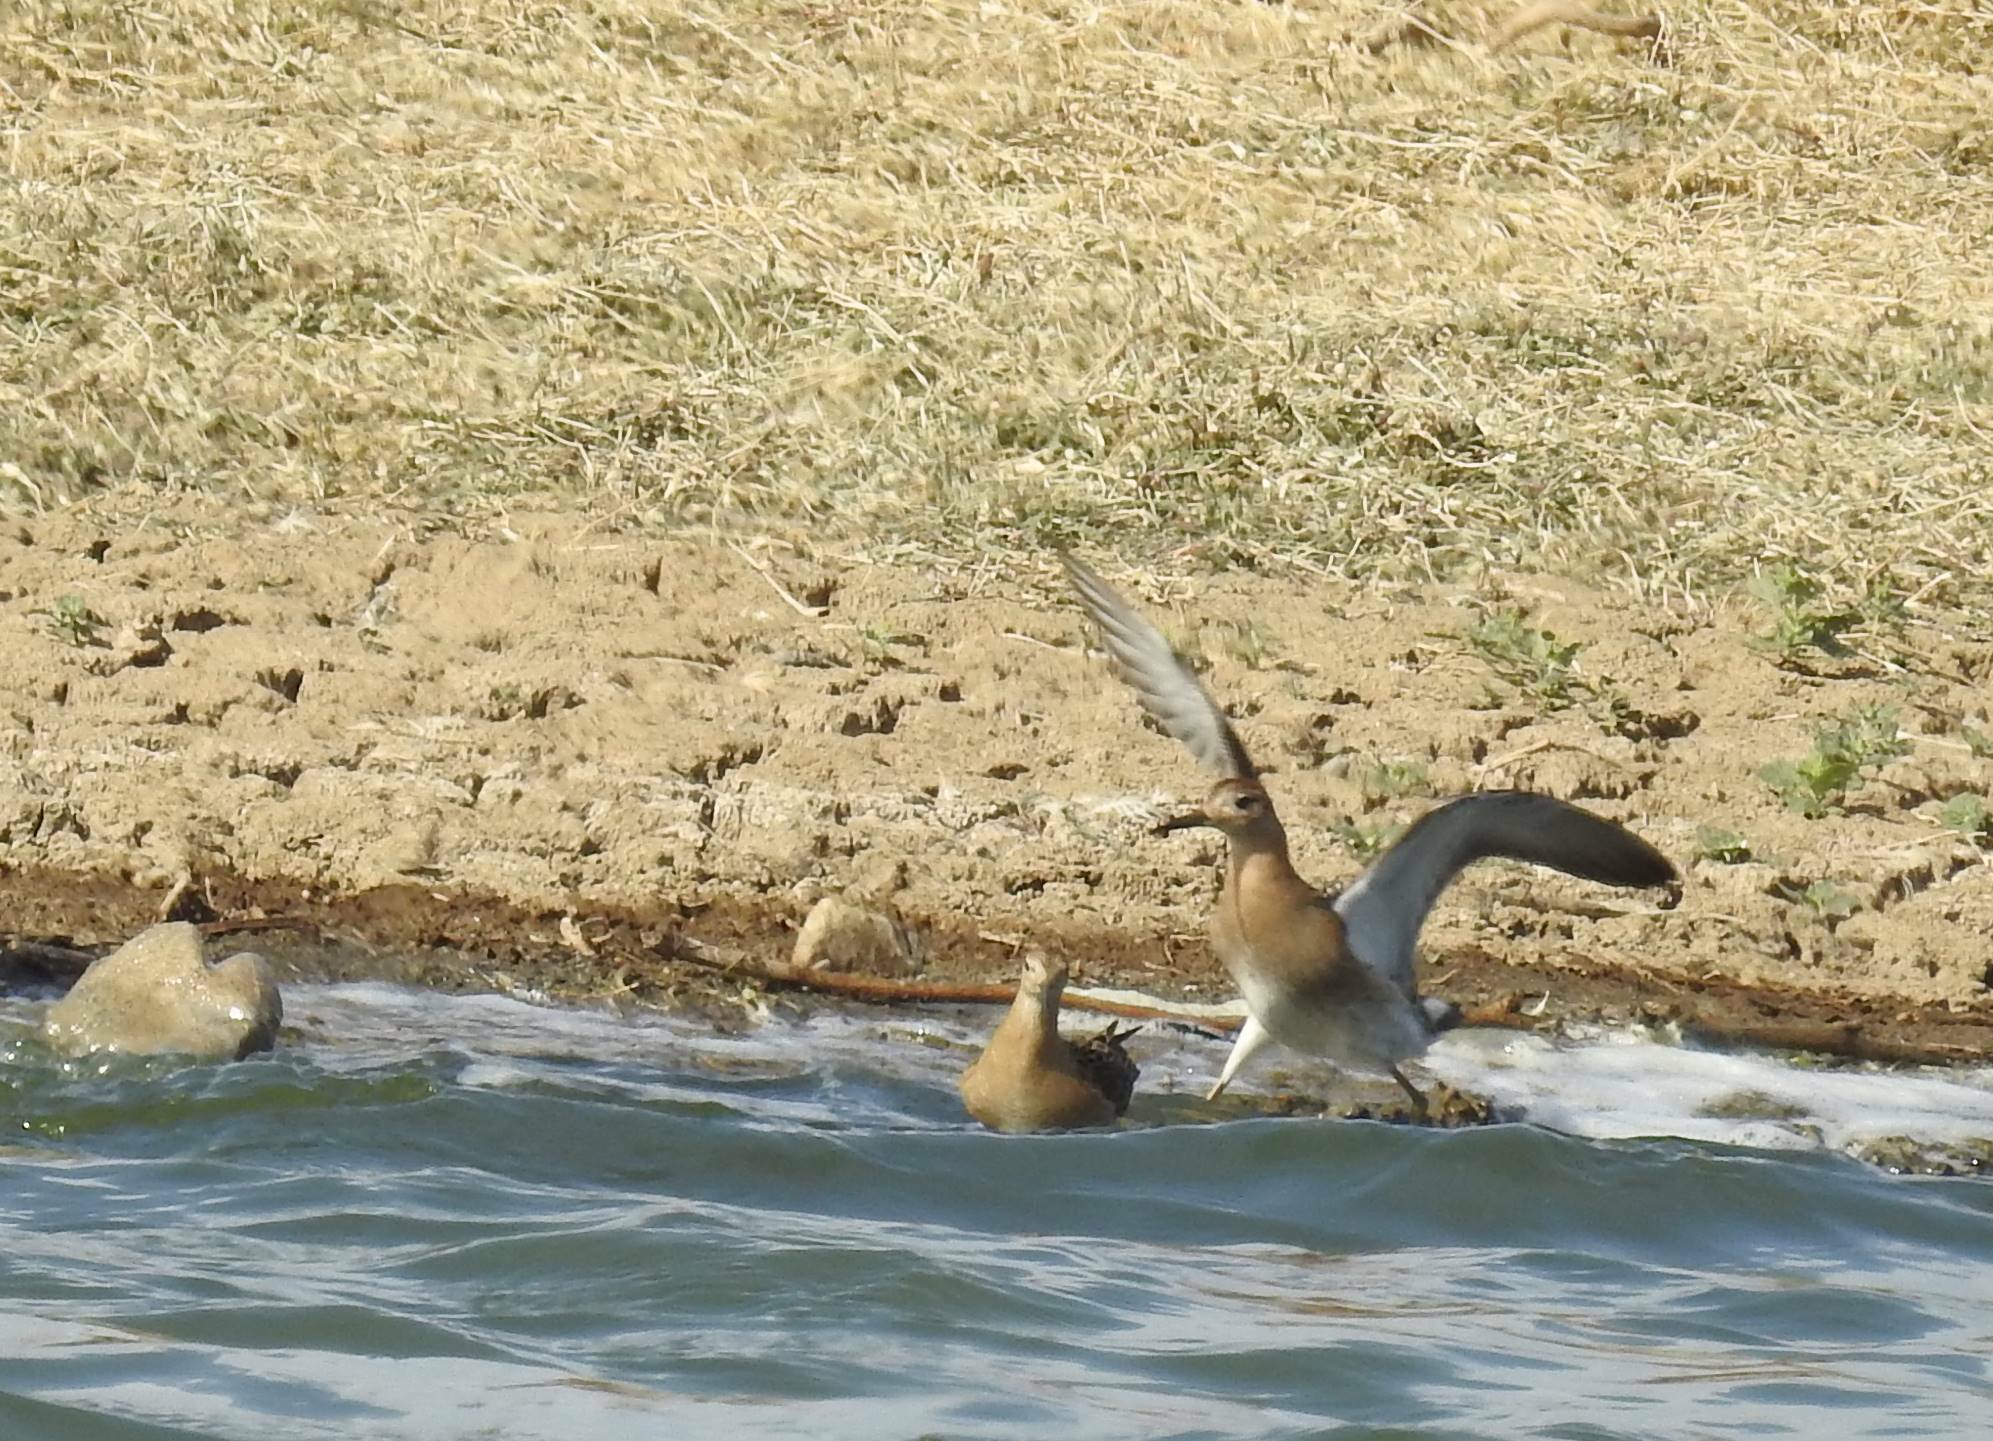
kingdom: Animalia
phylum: Chordata
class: Aves
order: Charadriiformes
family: Scolopacidae
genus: Calidris
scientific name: Calidris pugnax
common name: Ruff
